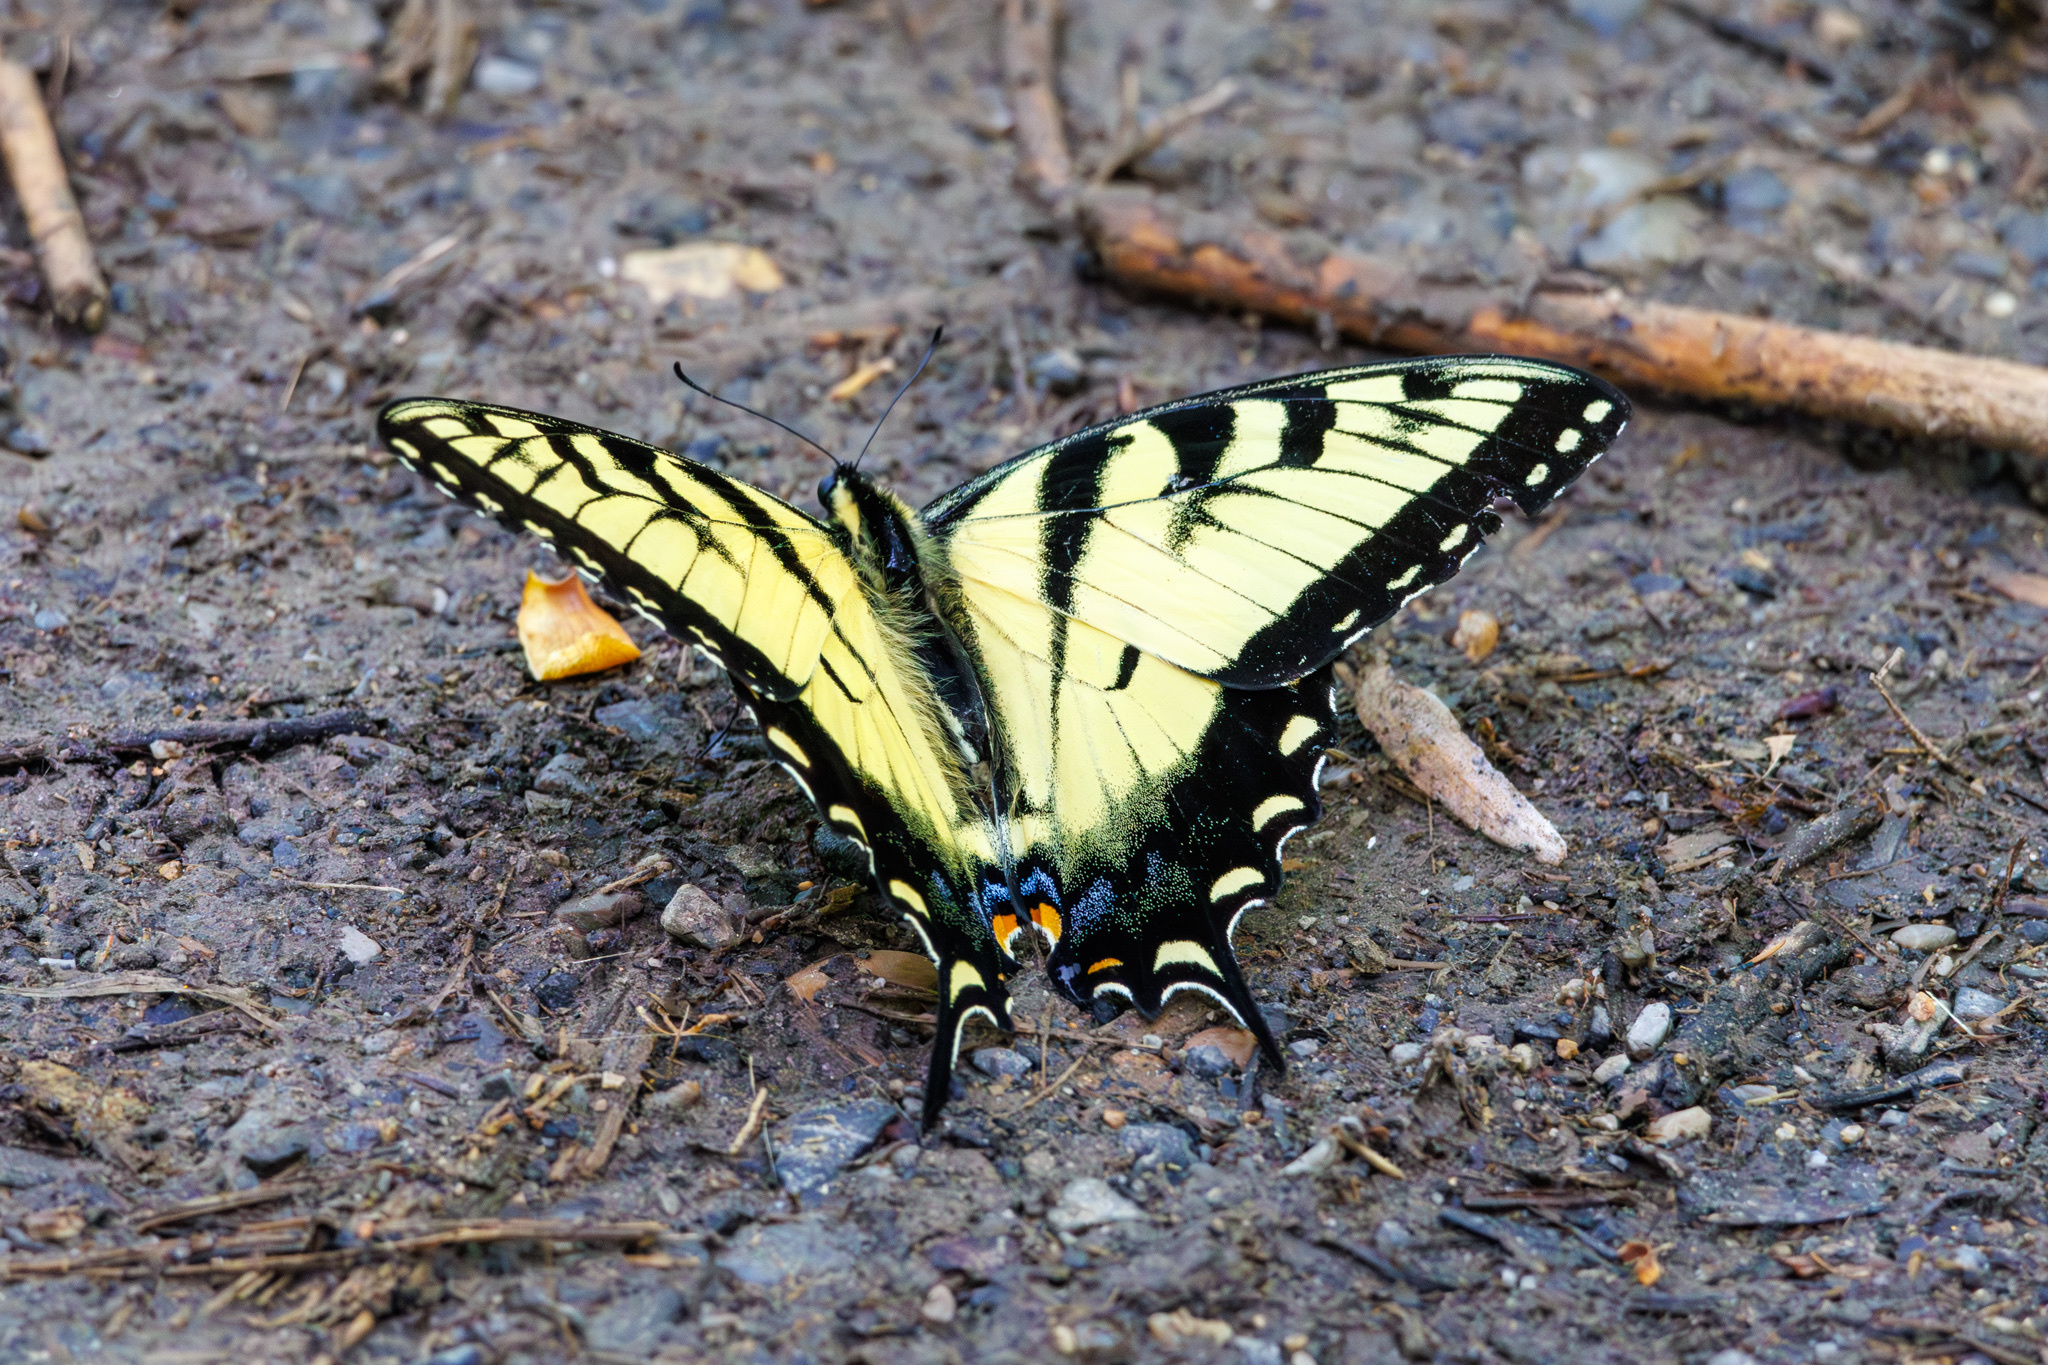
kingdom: Animalia
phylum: Arthropoda
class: Insecta
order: Lepidoptera
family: Papilionidae
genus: Papilio
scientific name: Papilio glaucus
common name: Tiger swallowtail
